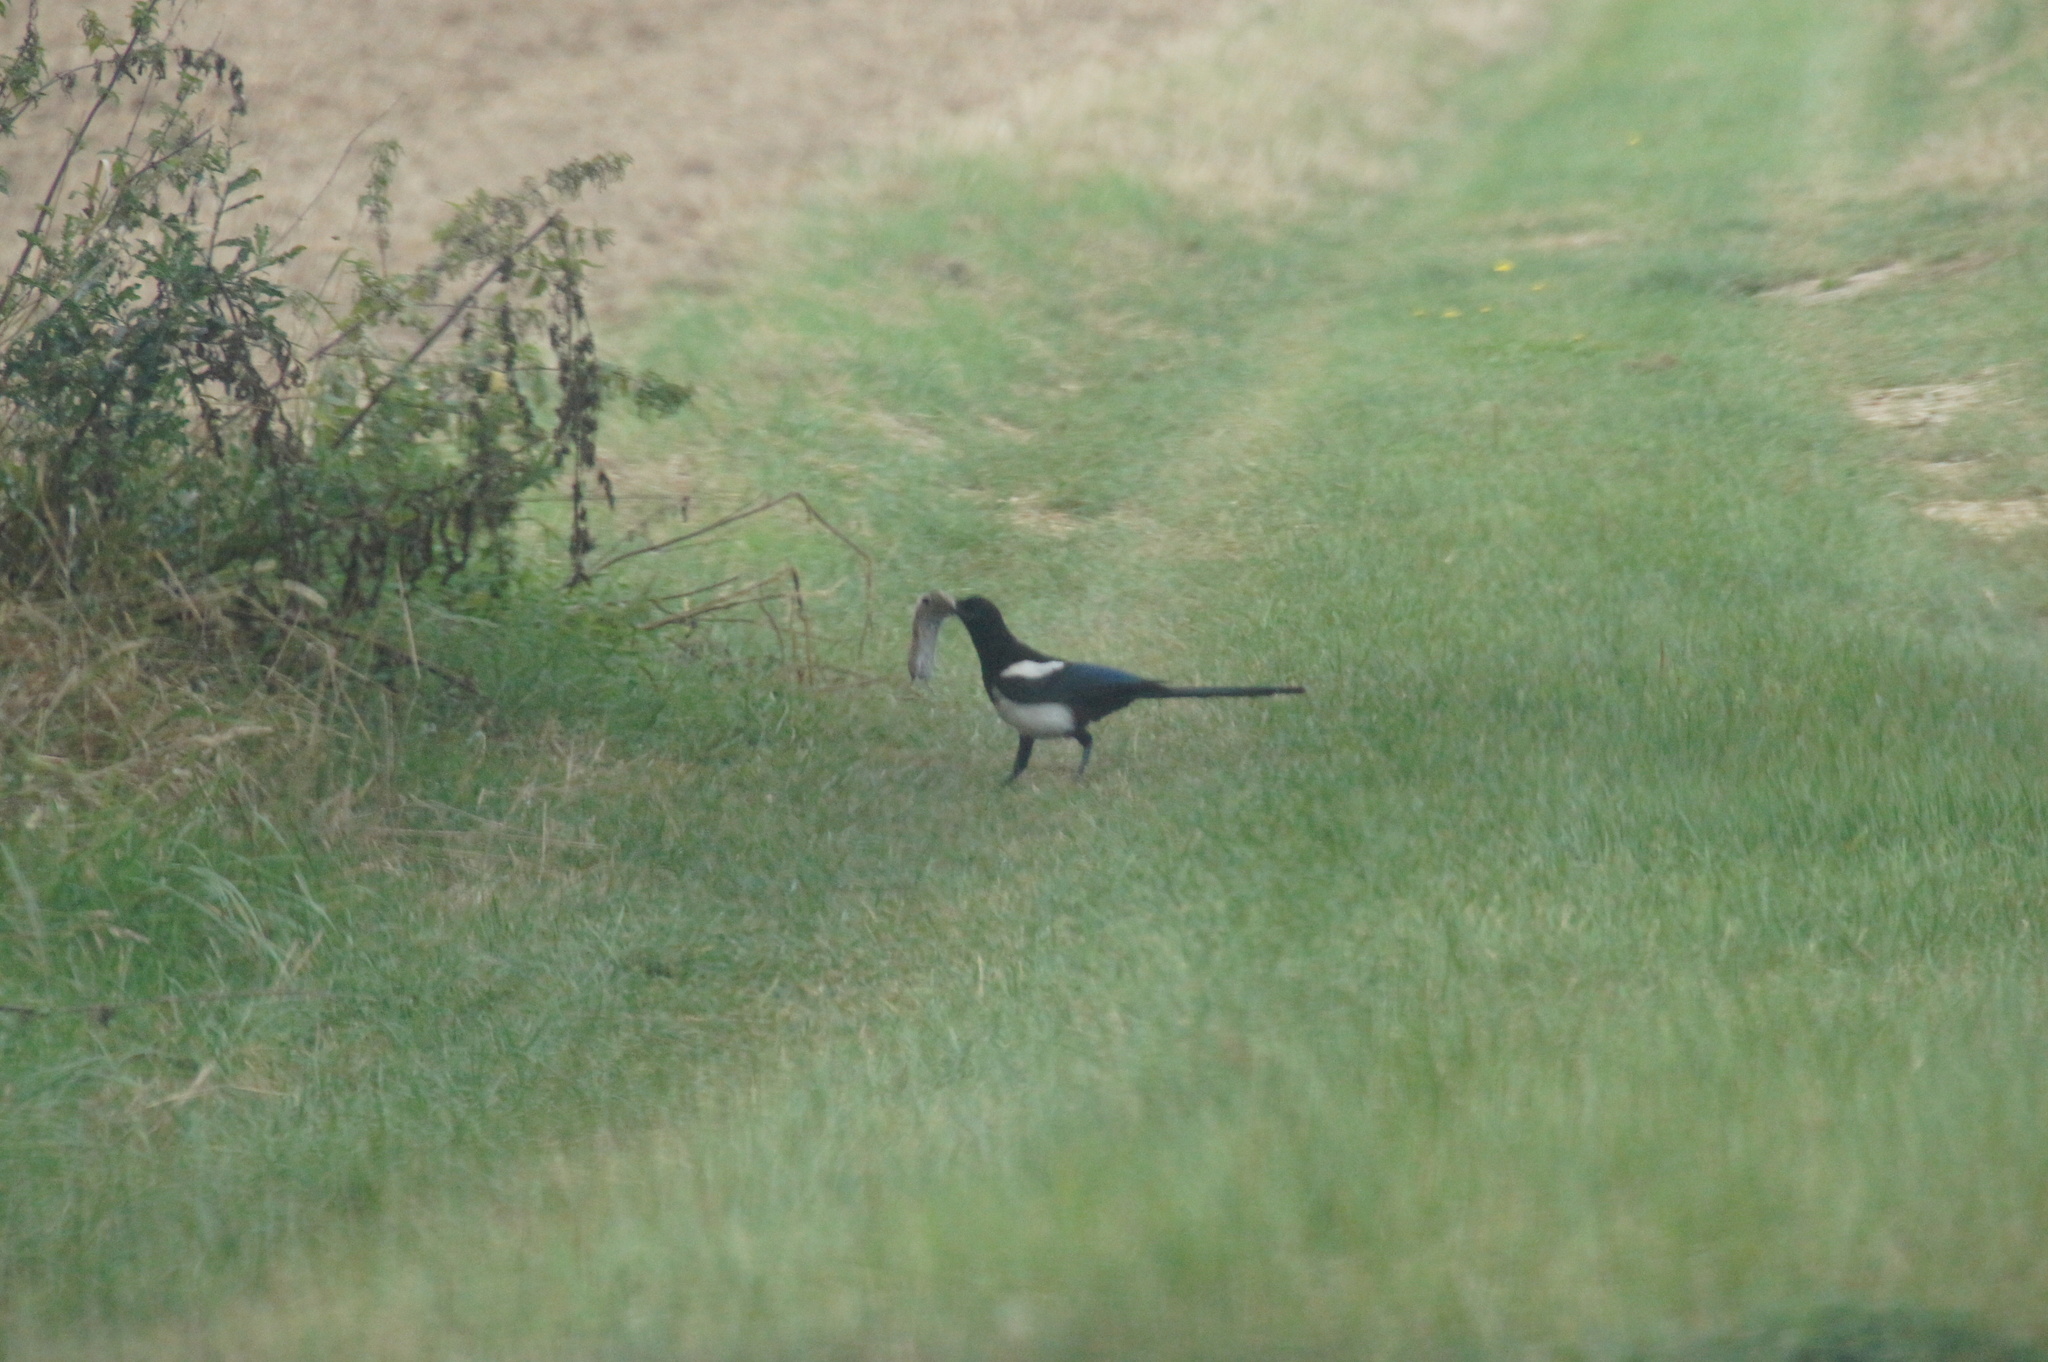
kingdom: Animalia
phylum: Chordata
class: Aves
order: Passeriformes
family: Corvidae
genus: Pica
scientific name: Pica pica
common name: Eurasian magpie
